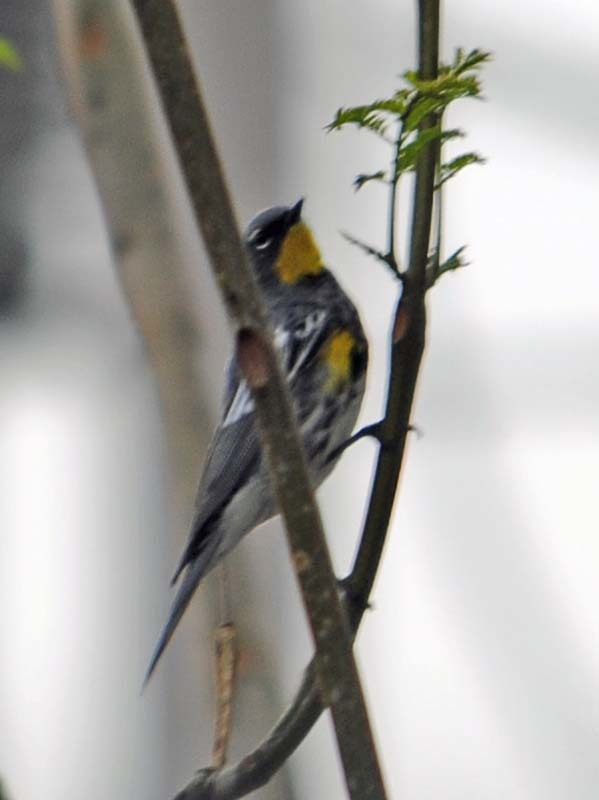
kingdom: Animalia
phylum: Chordata
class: Aves
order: Passeriformes
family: Parulidae
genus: Setophaga
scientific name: Setophaga auduboni
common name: Audubon's warbler
